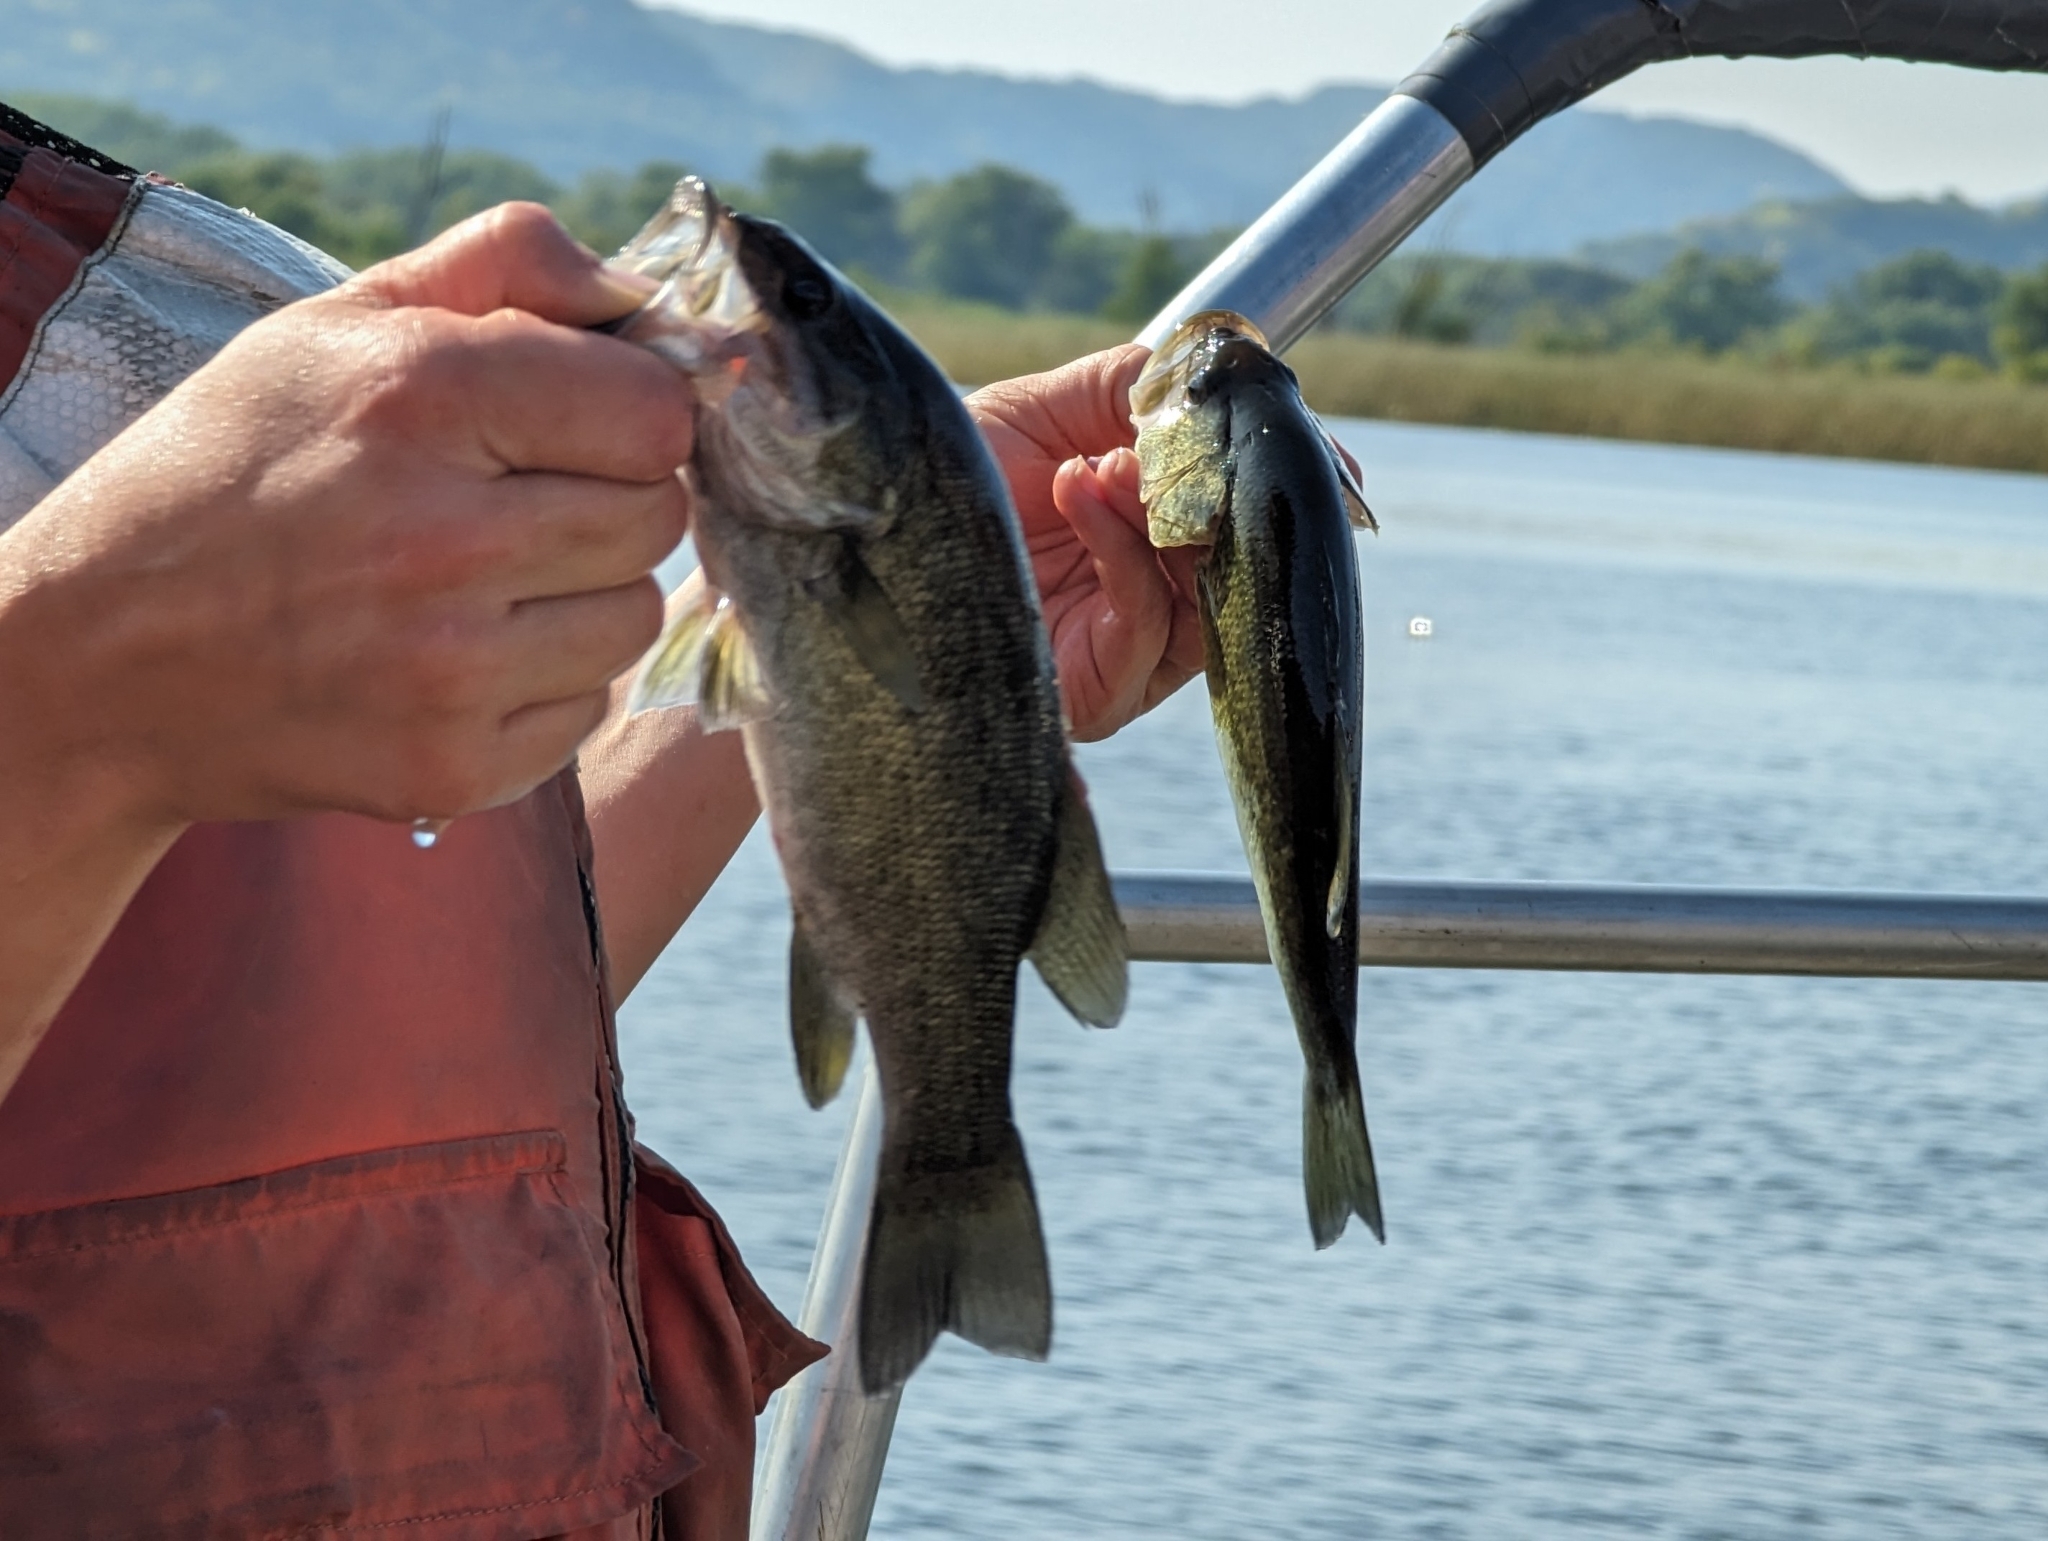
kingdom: Animalia
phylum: Chordata
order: Perciformes
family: Centrarchidae
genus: Micropterus
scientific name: Micropterus dolomieu
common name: Smallmouth bass
